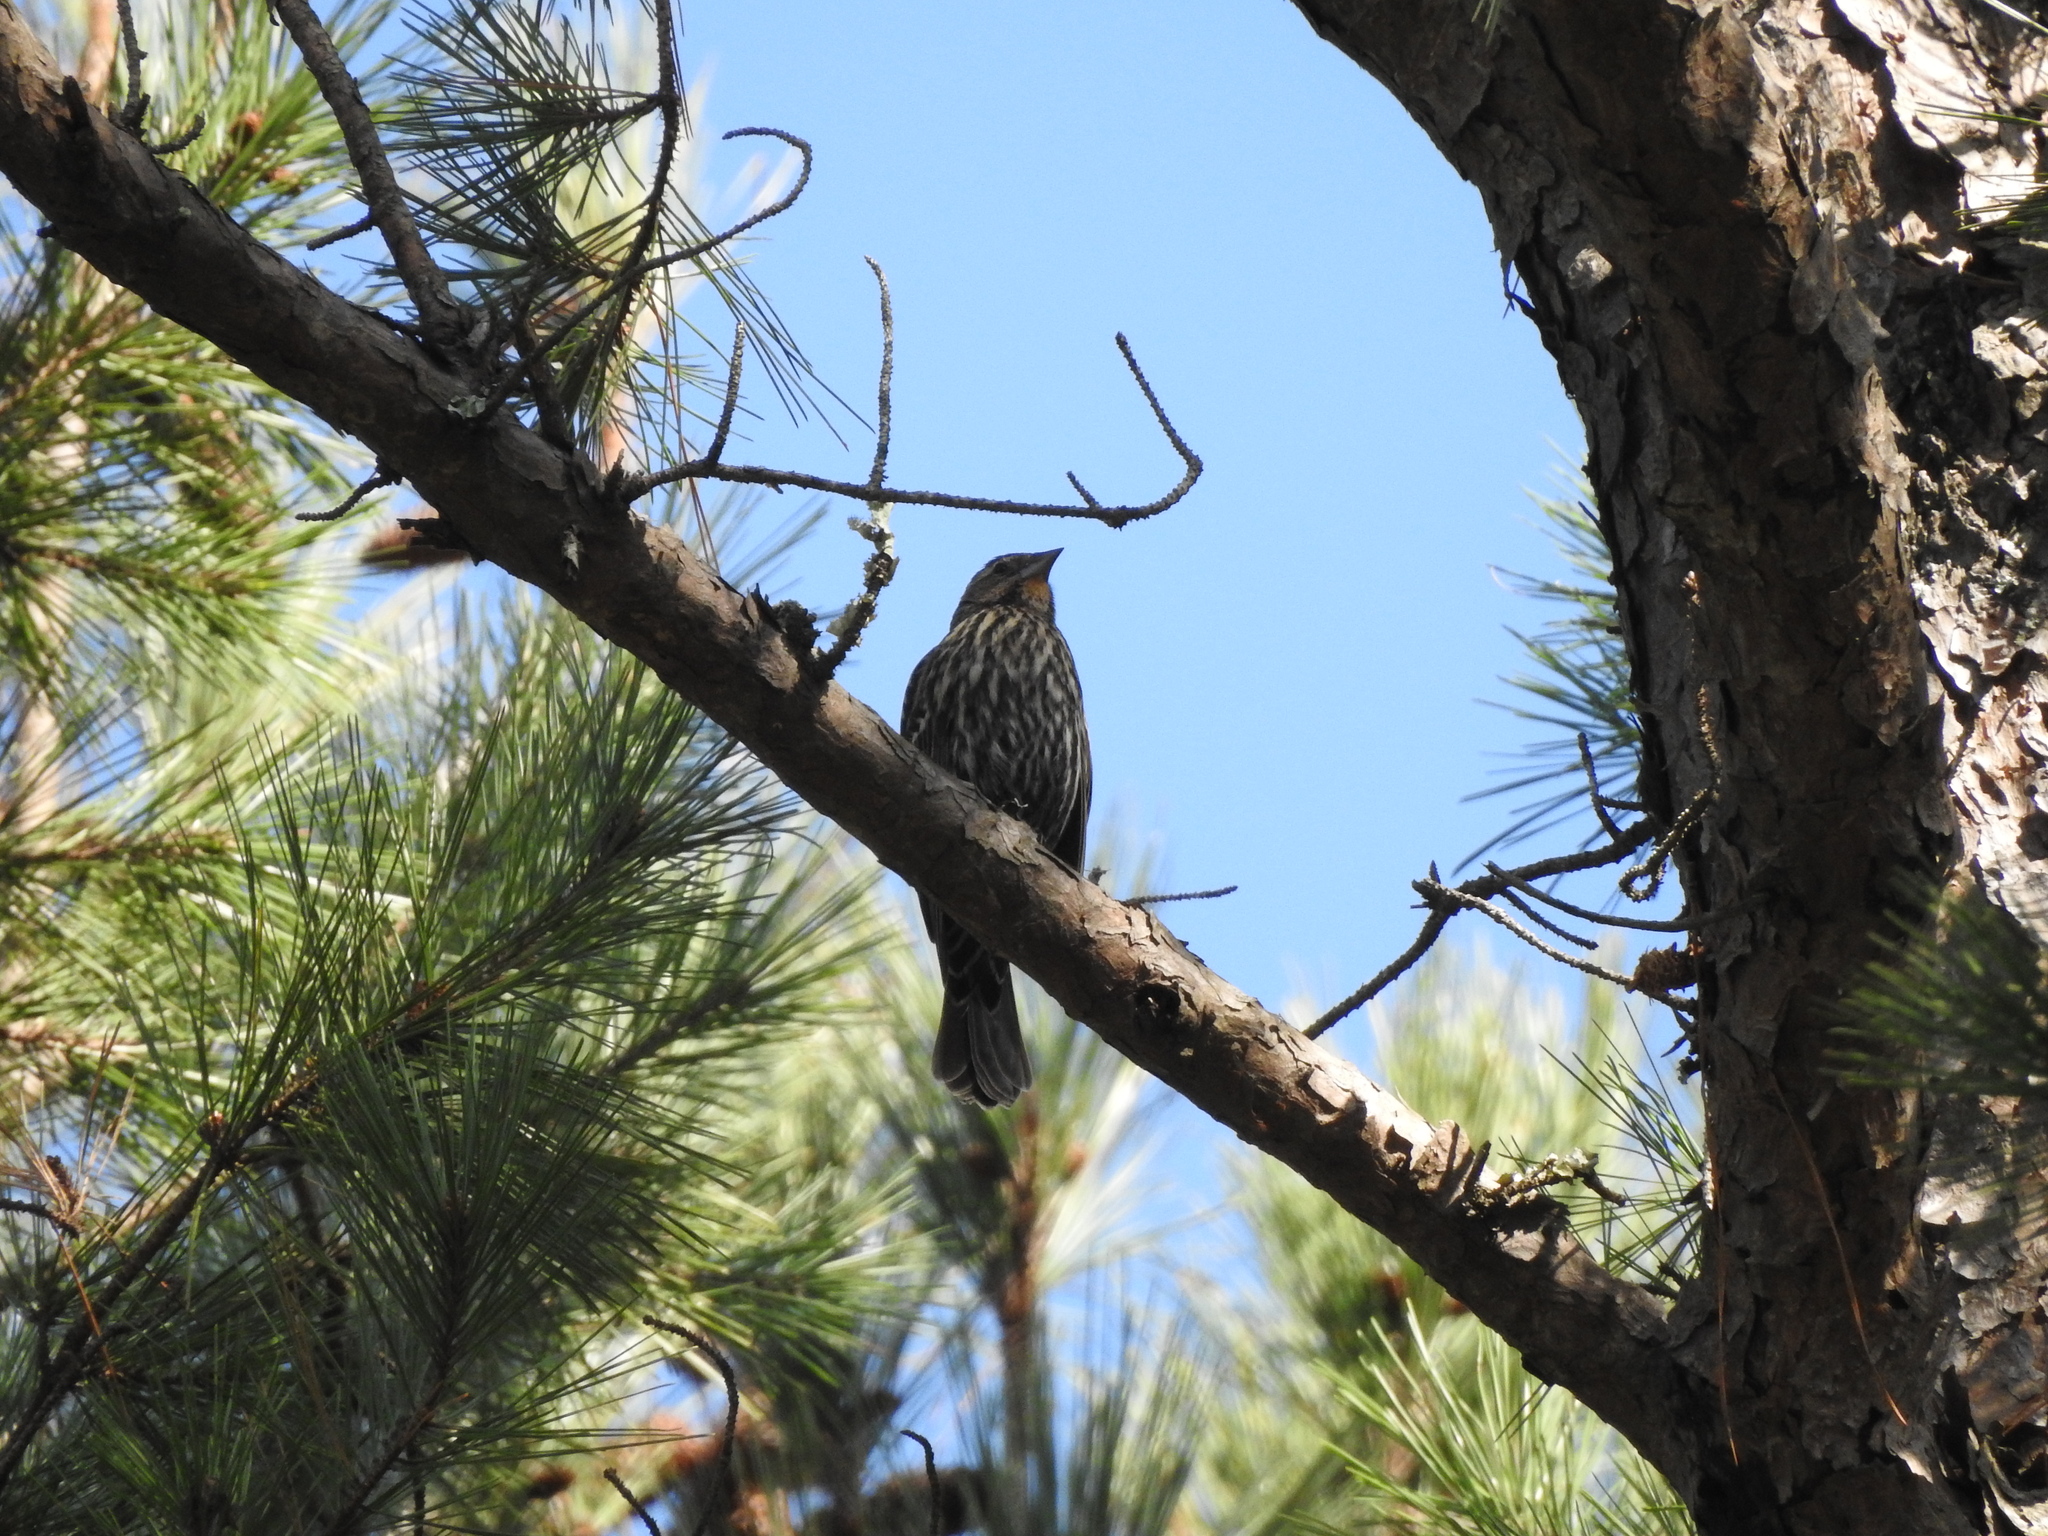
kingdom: Animalia
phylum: Chordata
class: Aves
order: Passeriformes
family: Icteridae
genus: Agelaius
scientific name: Agelaius phoeniceus
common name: Red-winged blackbird
